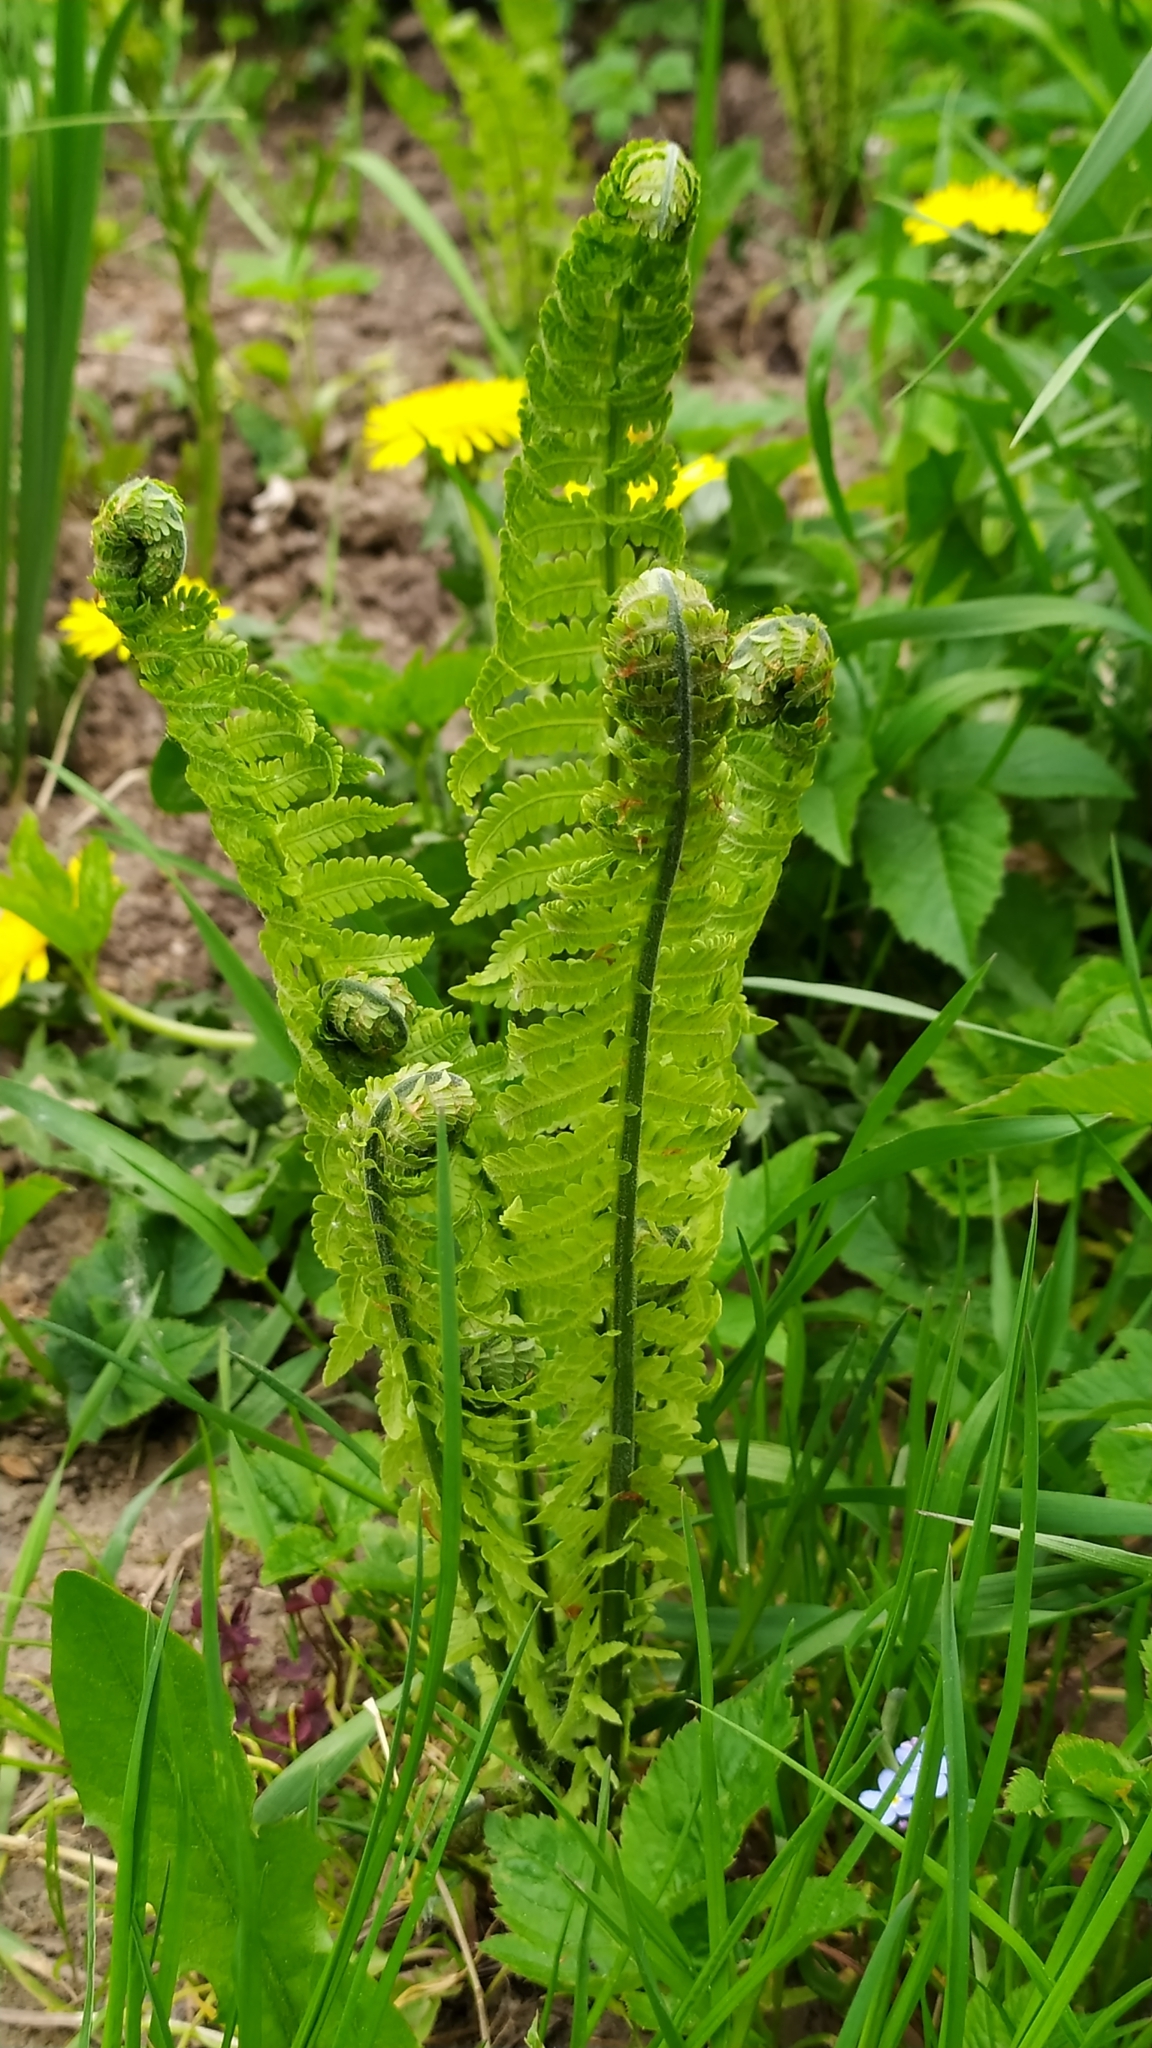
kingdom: Plantae
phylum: Tracheophyta
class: Polypodiopsida
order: Polypodiales
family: Onocleaceae
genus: Matteuccia
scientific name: Matteuccia struthiopteris
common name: Ostrich fern
